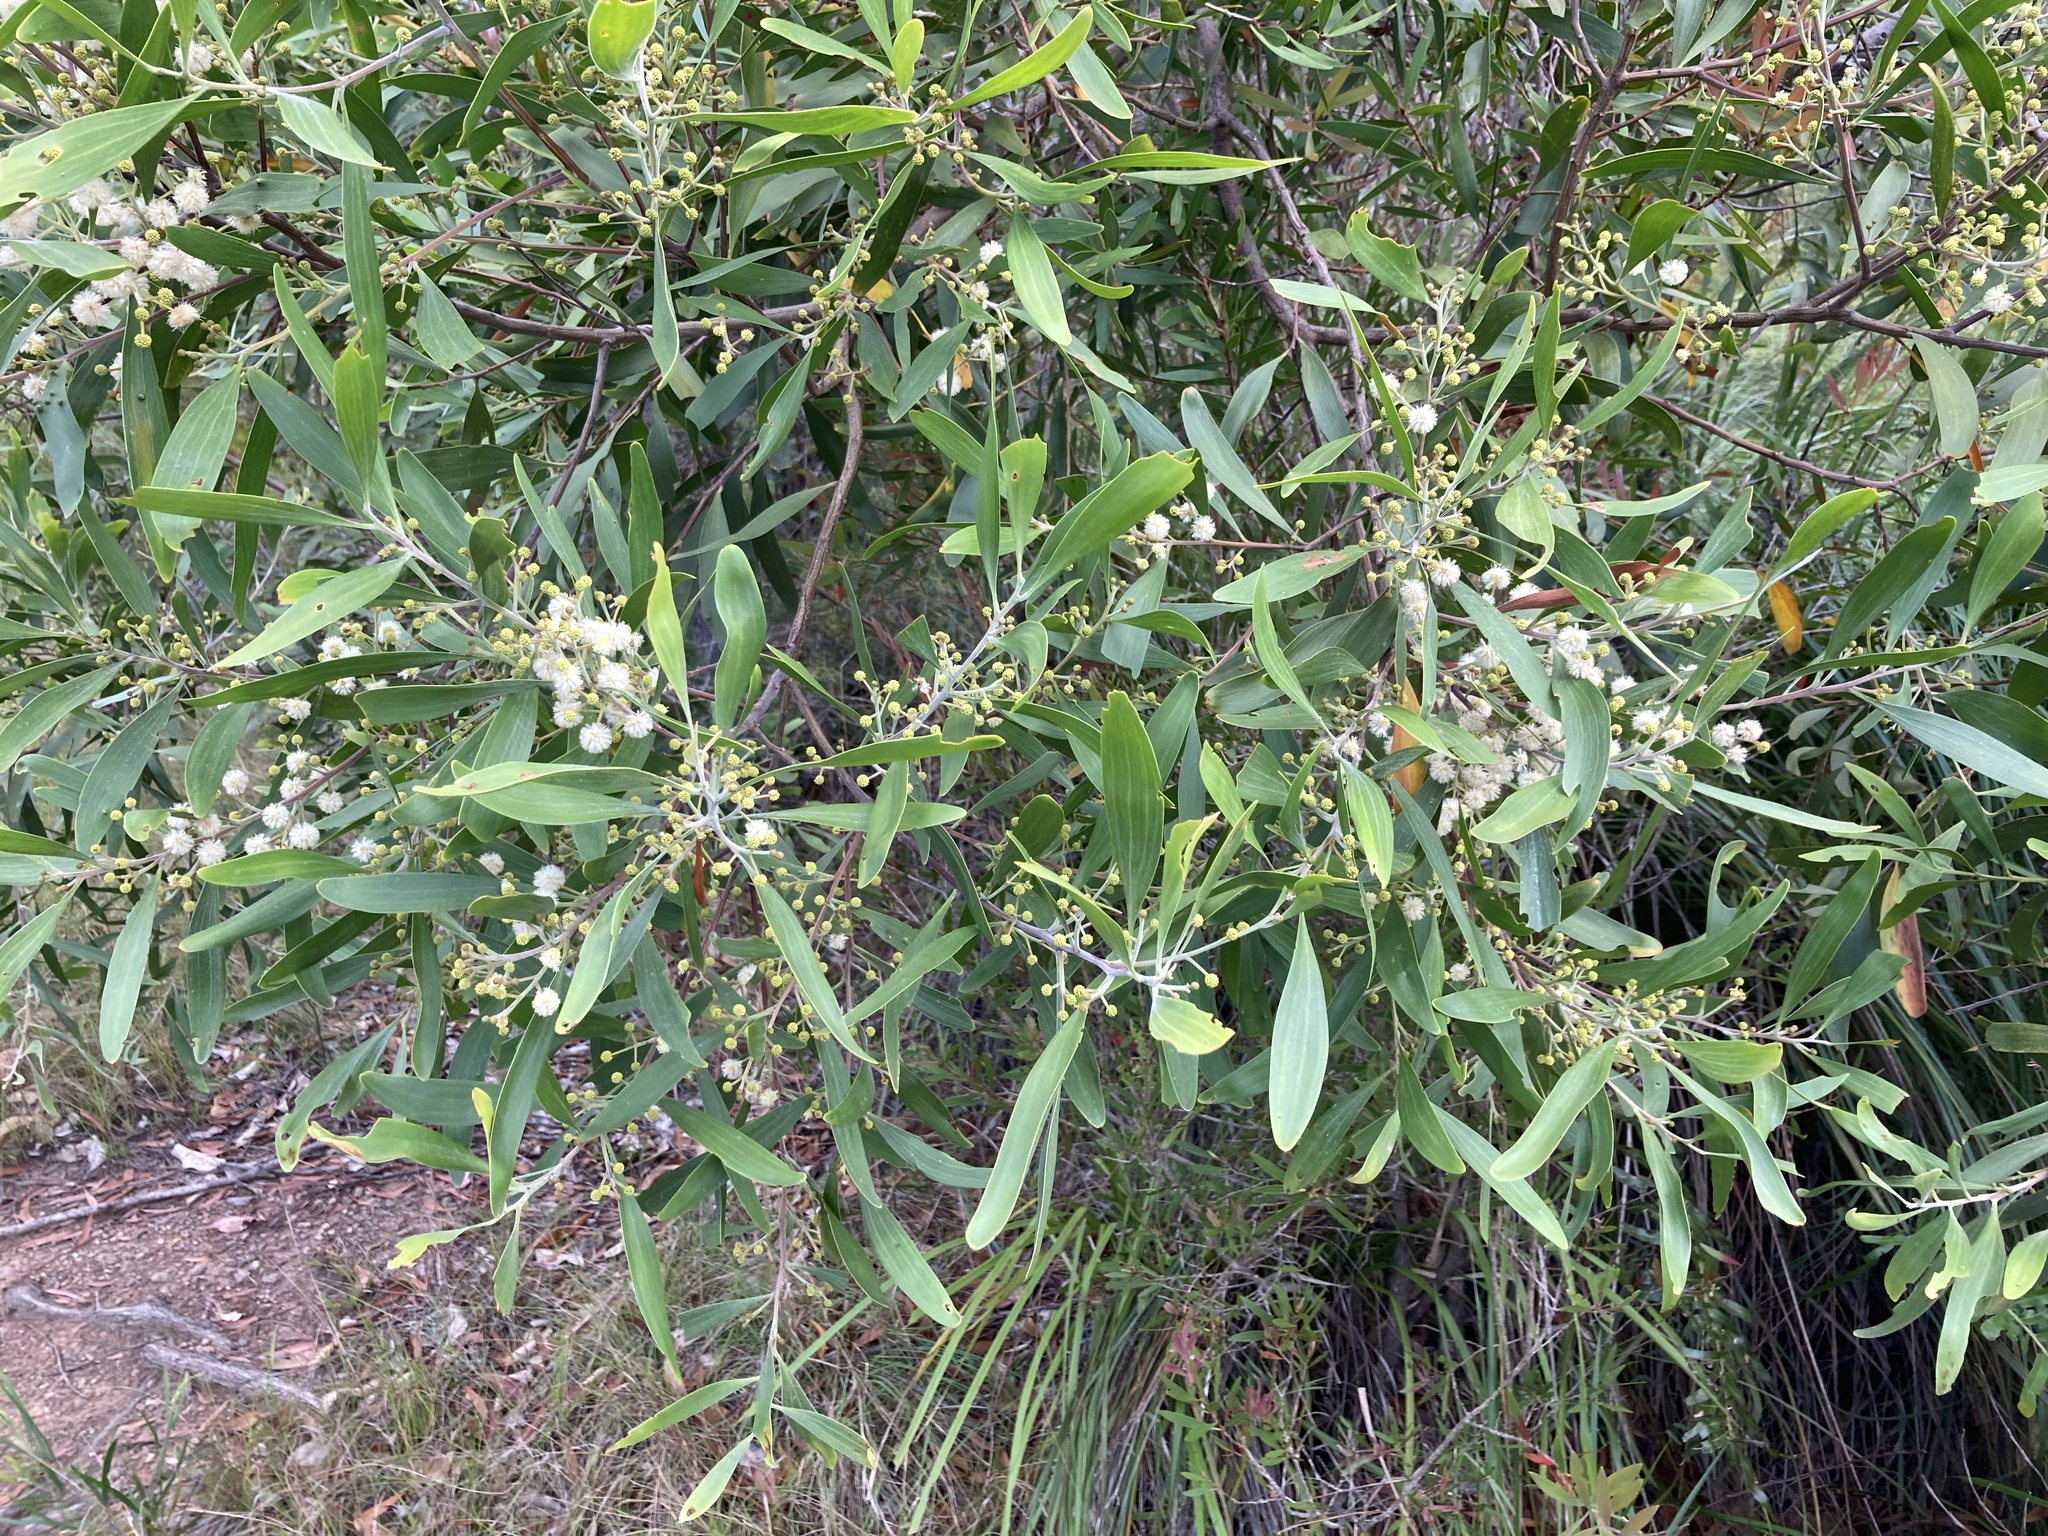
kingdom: Plantae
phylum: Tracheophyta
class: Magnoliopsida
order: Fabales
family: Fabaceae
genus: Acacia
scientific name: Acacia melanoxylon
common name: Blackwood
